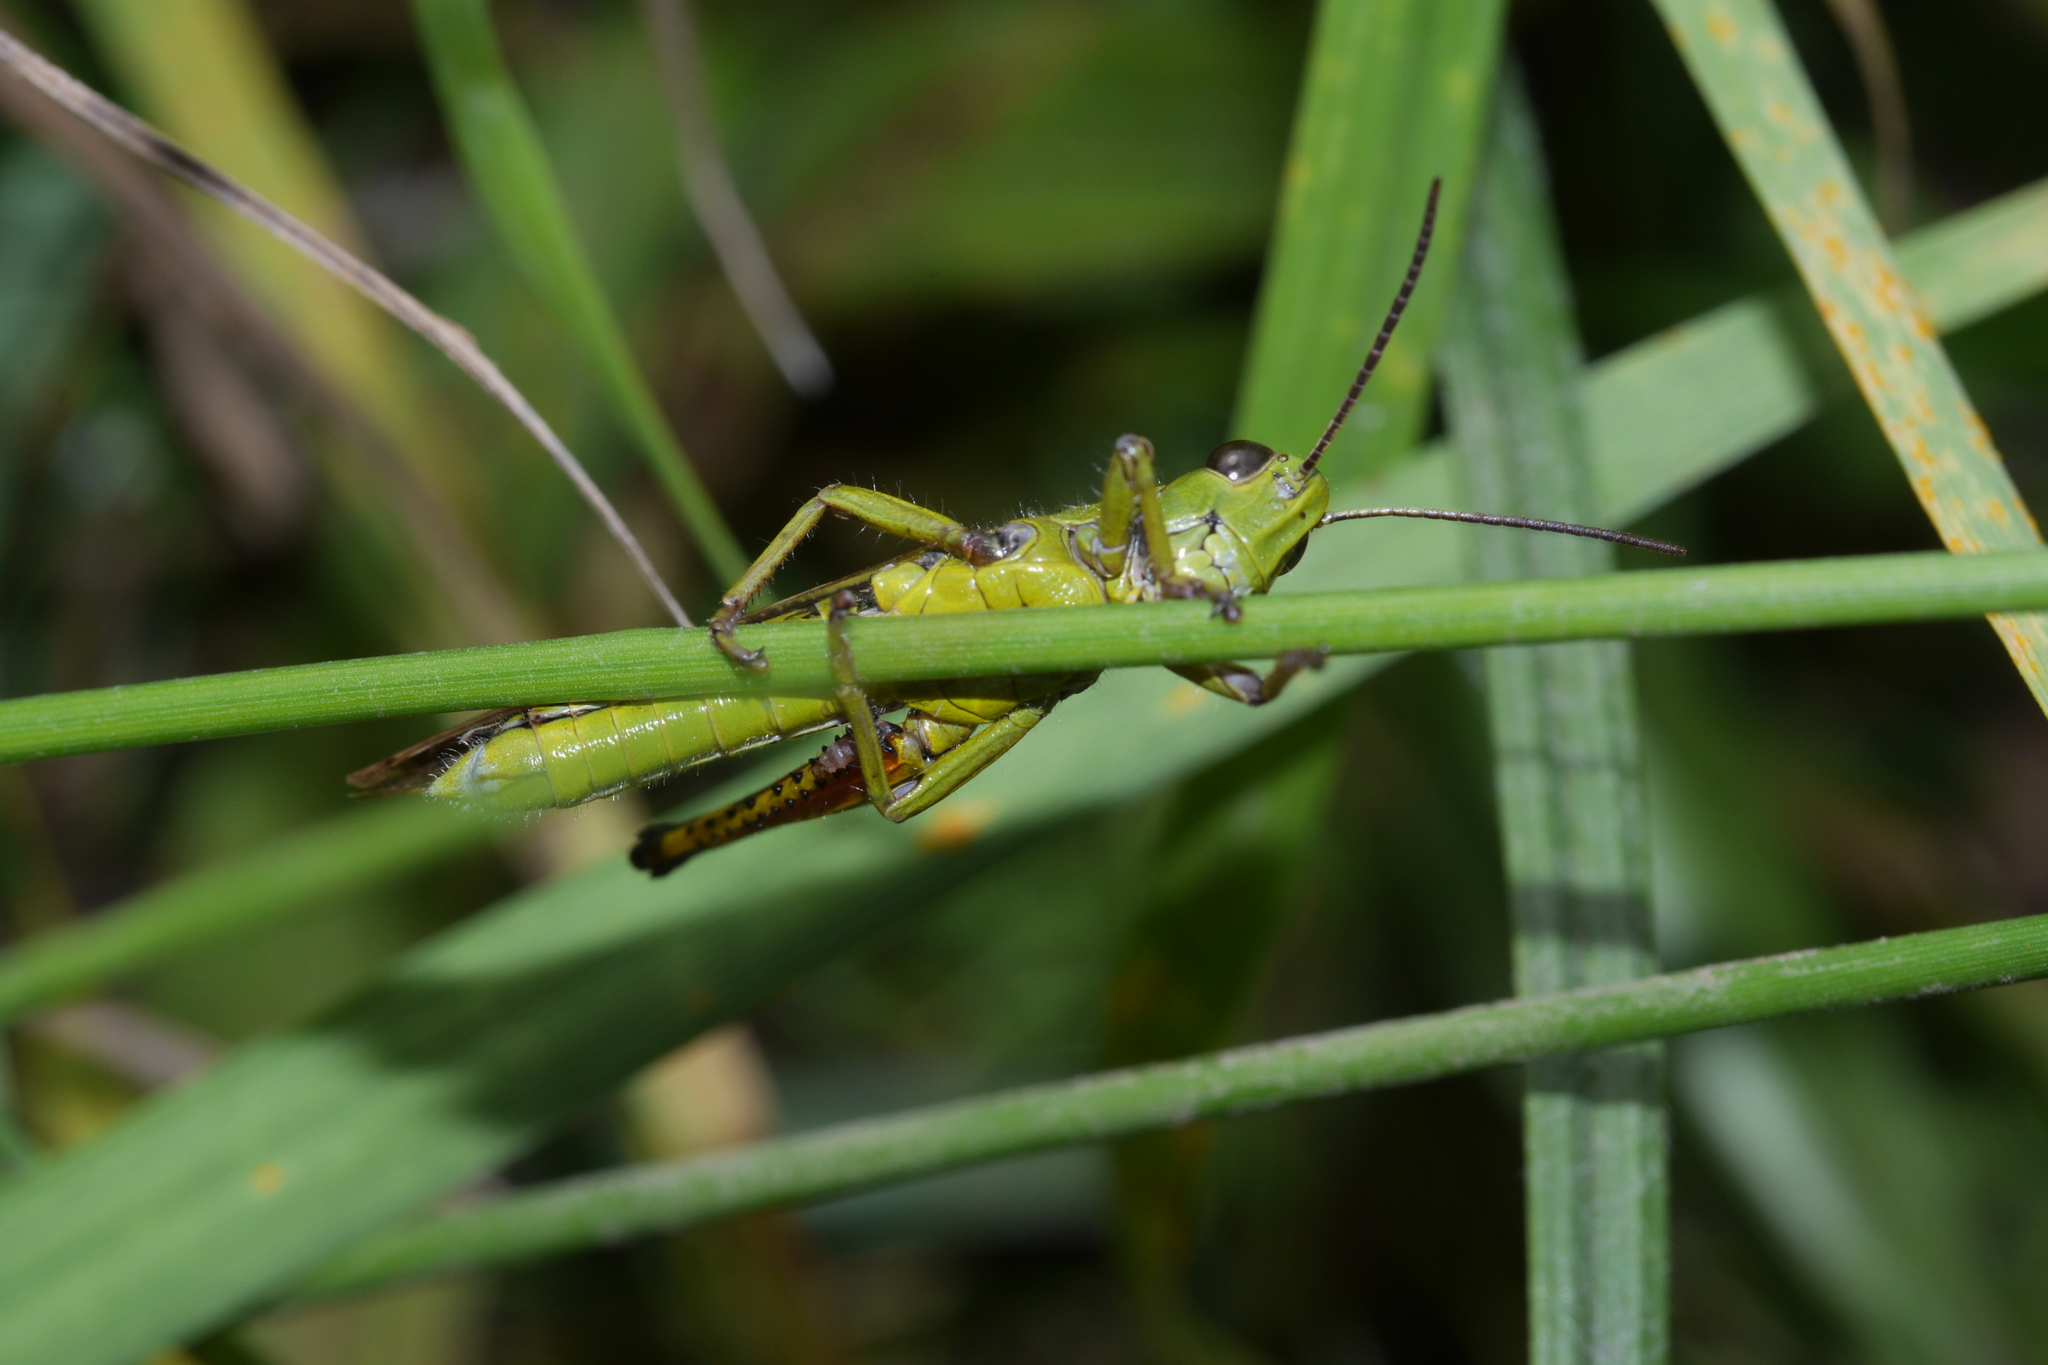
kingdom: Animalia
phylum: Arthropoda
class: Insecta
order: Orthoptera
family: Acrididae
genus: Stethophyma
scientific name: Stethophyma grossum
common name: Large marsh grasshopper
